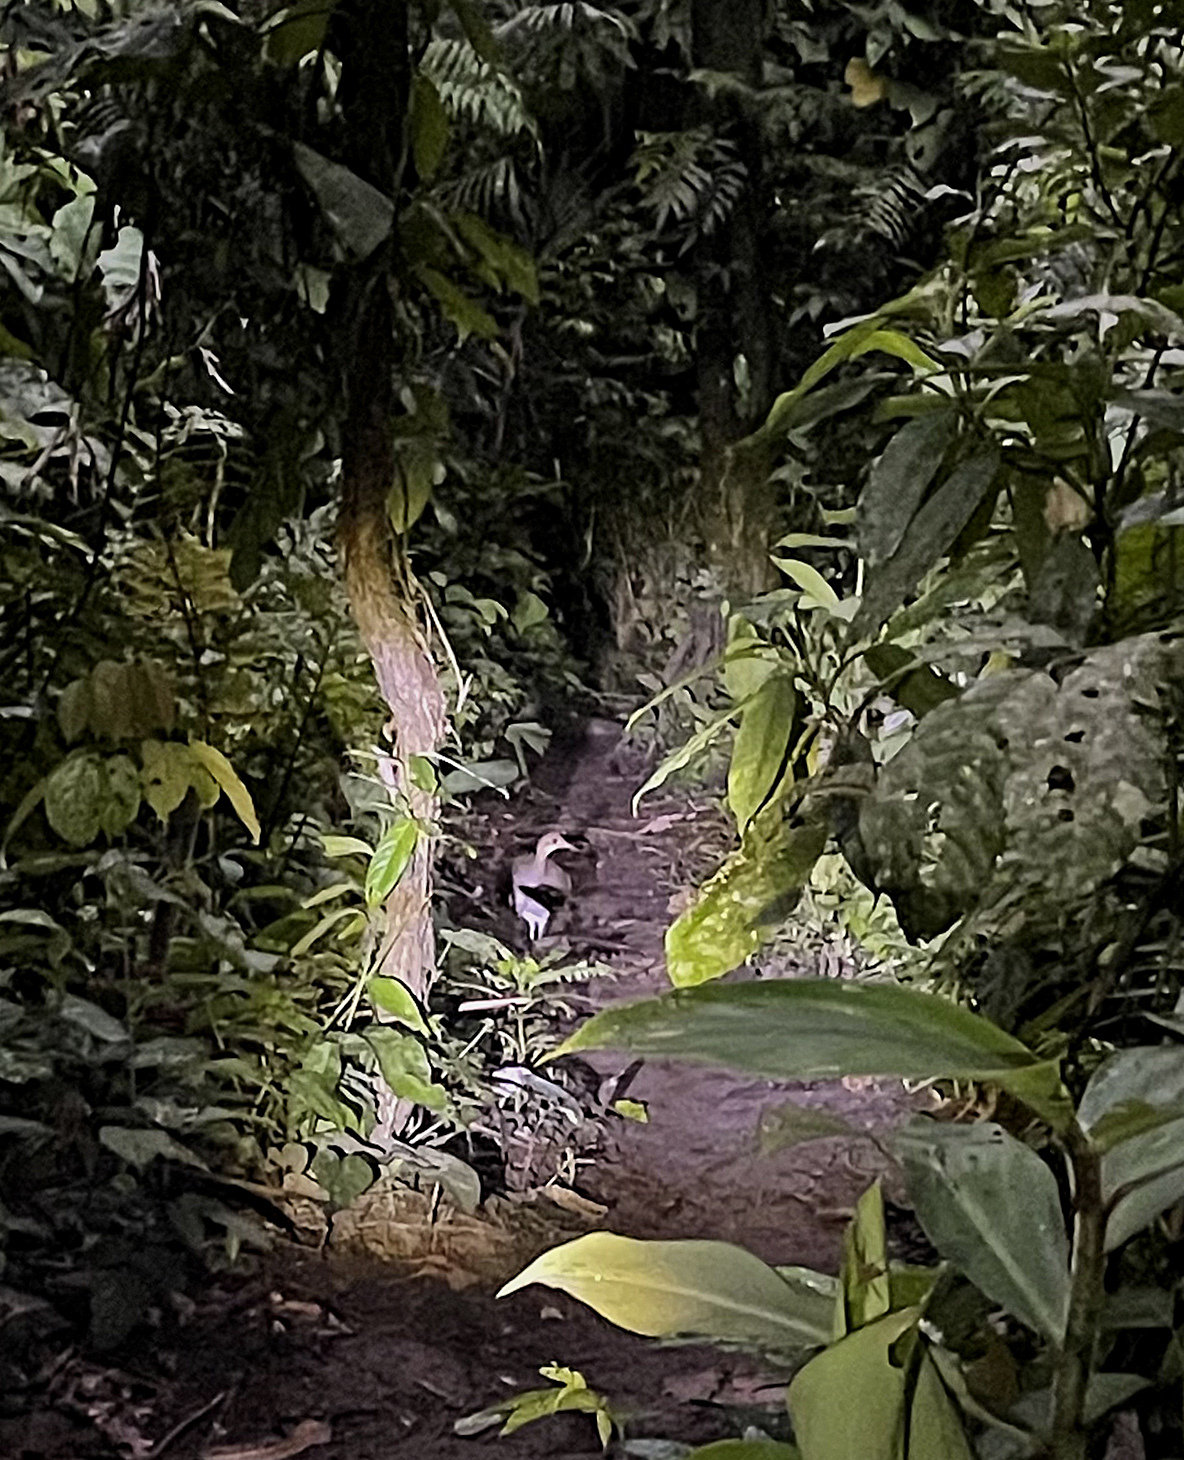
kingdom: Animalia
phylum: Chordata
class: Aves
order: Tinamiformes
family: Tinamidae
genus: Tinamus
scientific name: Tinamus major
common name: Great tinamou
